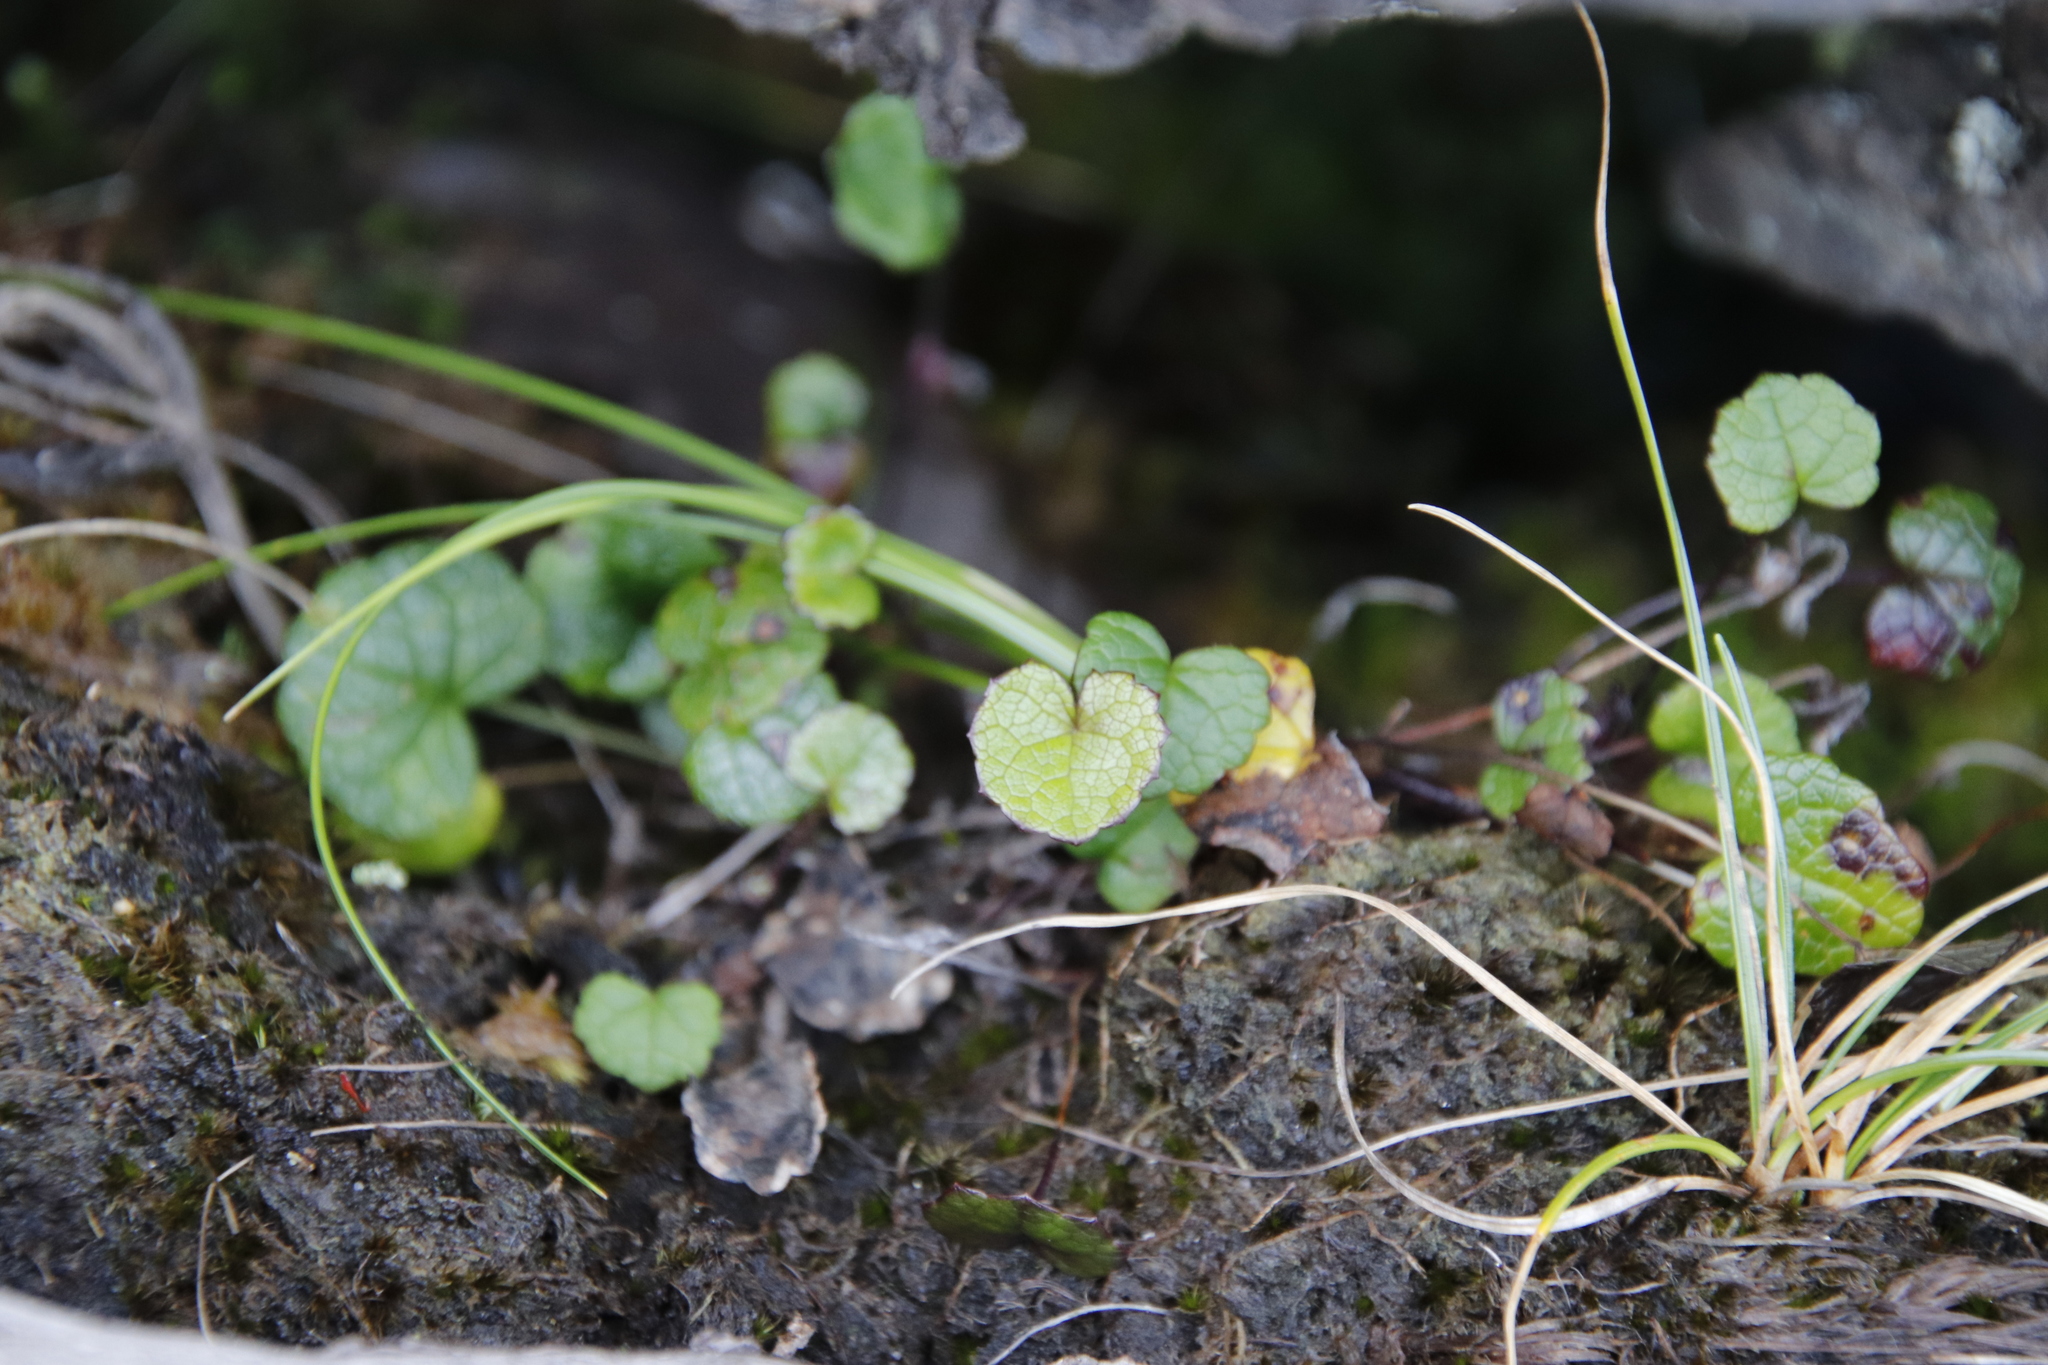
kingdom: Plantae
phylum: Tracheophyta
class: Magnoliopsida
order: Apiales
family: Apiaceae
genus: Centella
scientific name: Centella eriantha
